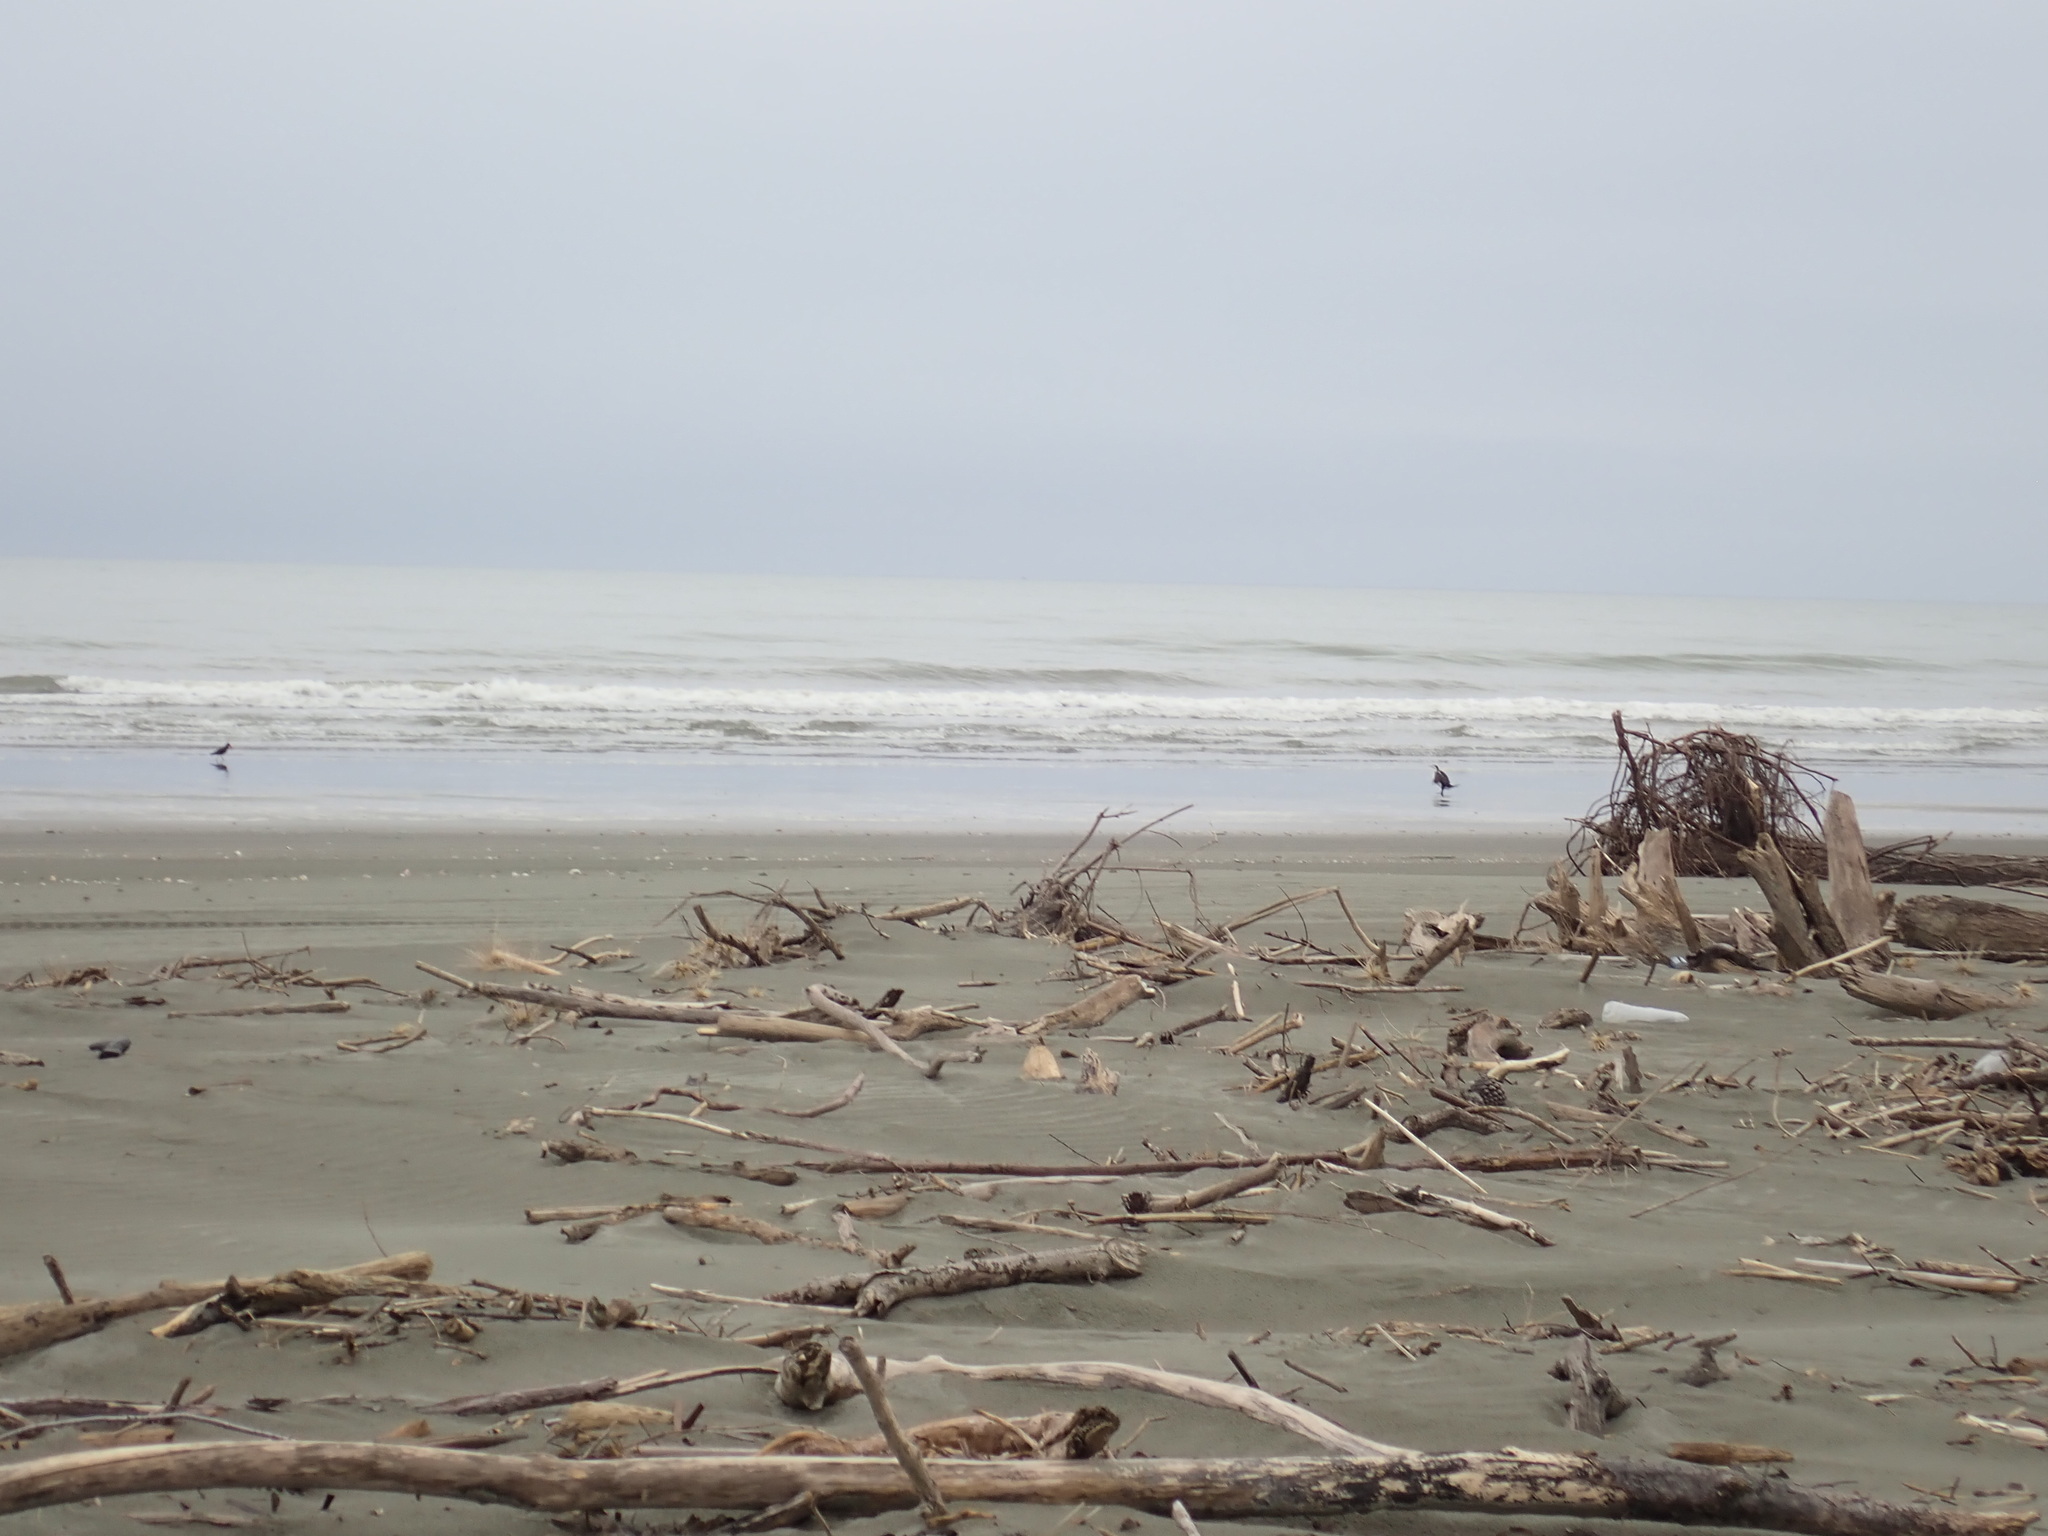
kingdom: Animalia
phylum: Chordata
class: Aves
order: Suliformes
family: Phalacrocoracidae
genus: Phalacrocorax
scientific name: Phalacrocorax varius
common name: Pied cormorant
